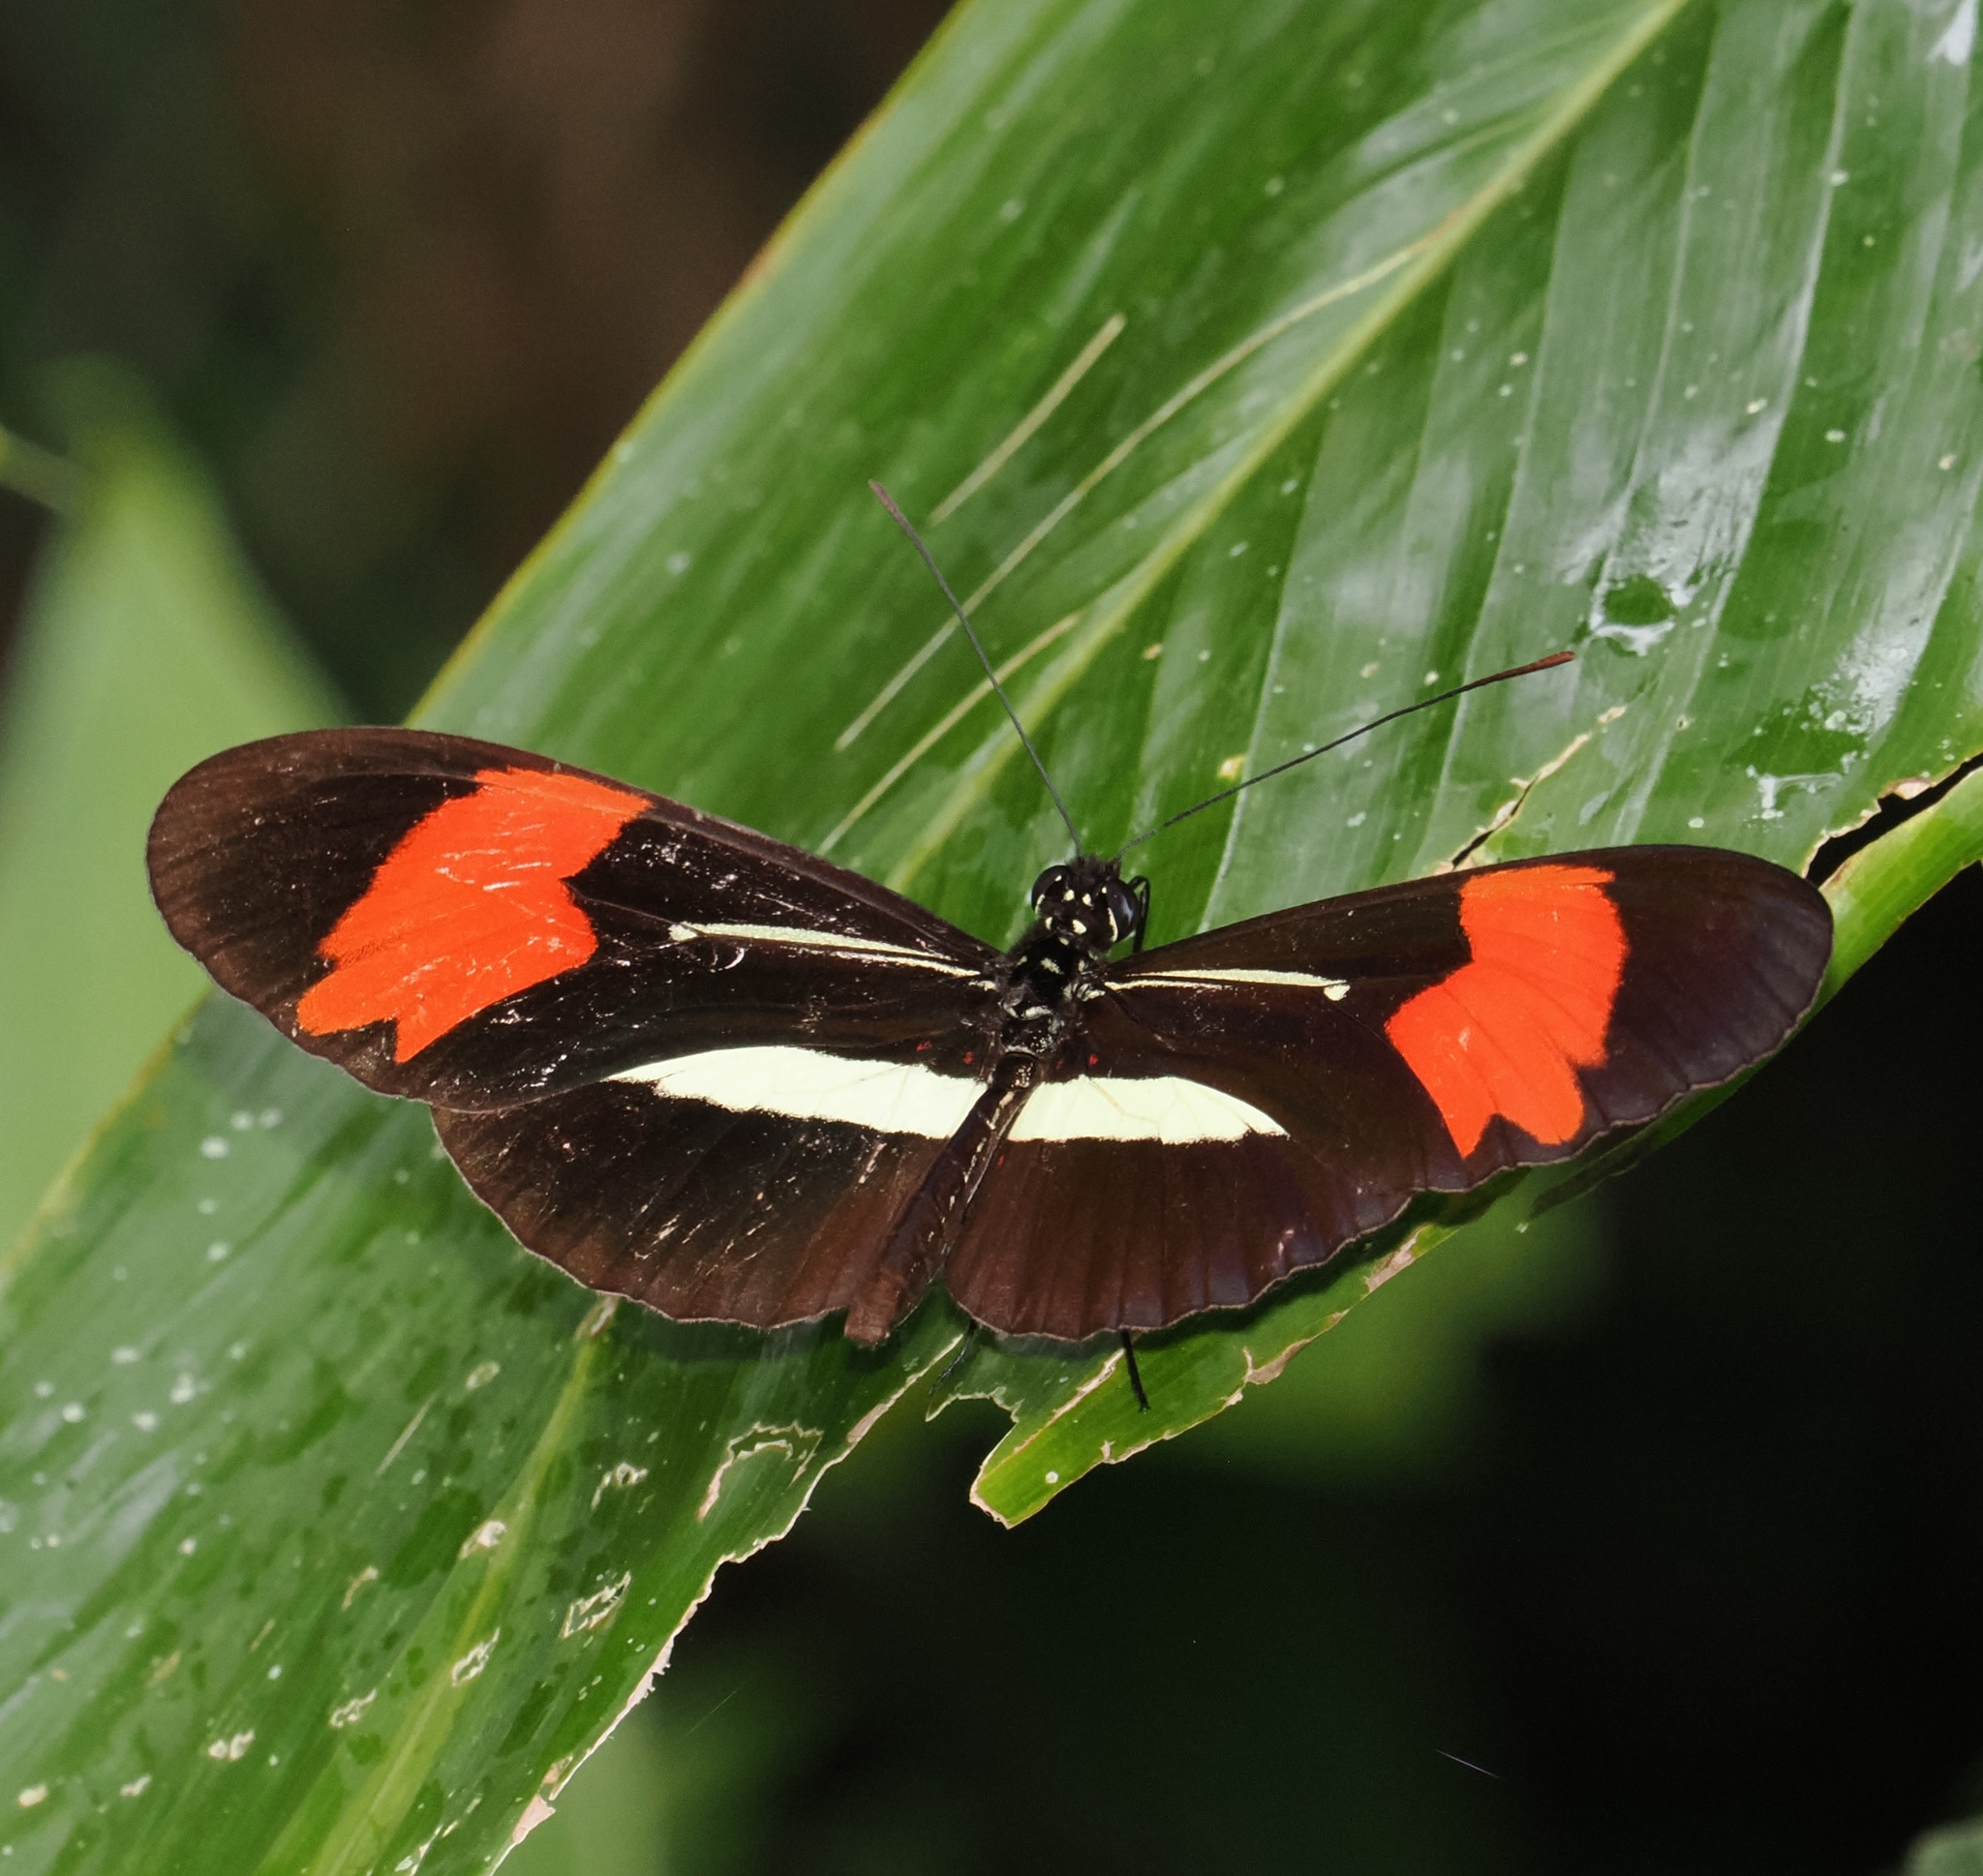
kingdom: Animalia
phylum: Arthropoda
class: Insecta
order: Lepidoptera
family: Nymphalidae
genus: Heliconius
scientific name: Heliconius erato
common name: Common patch longwing
